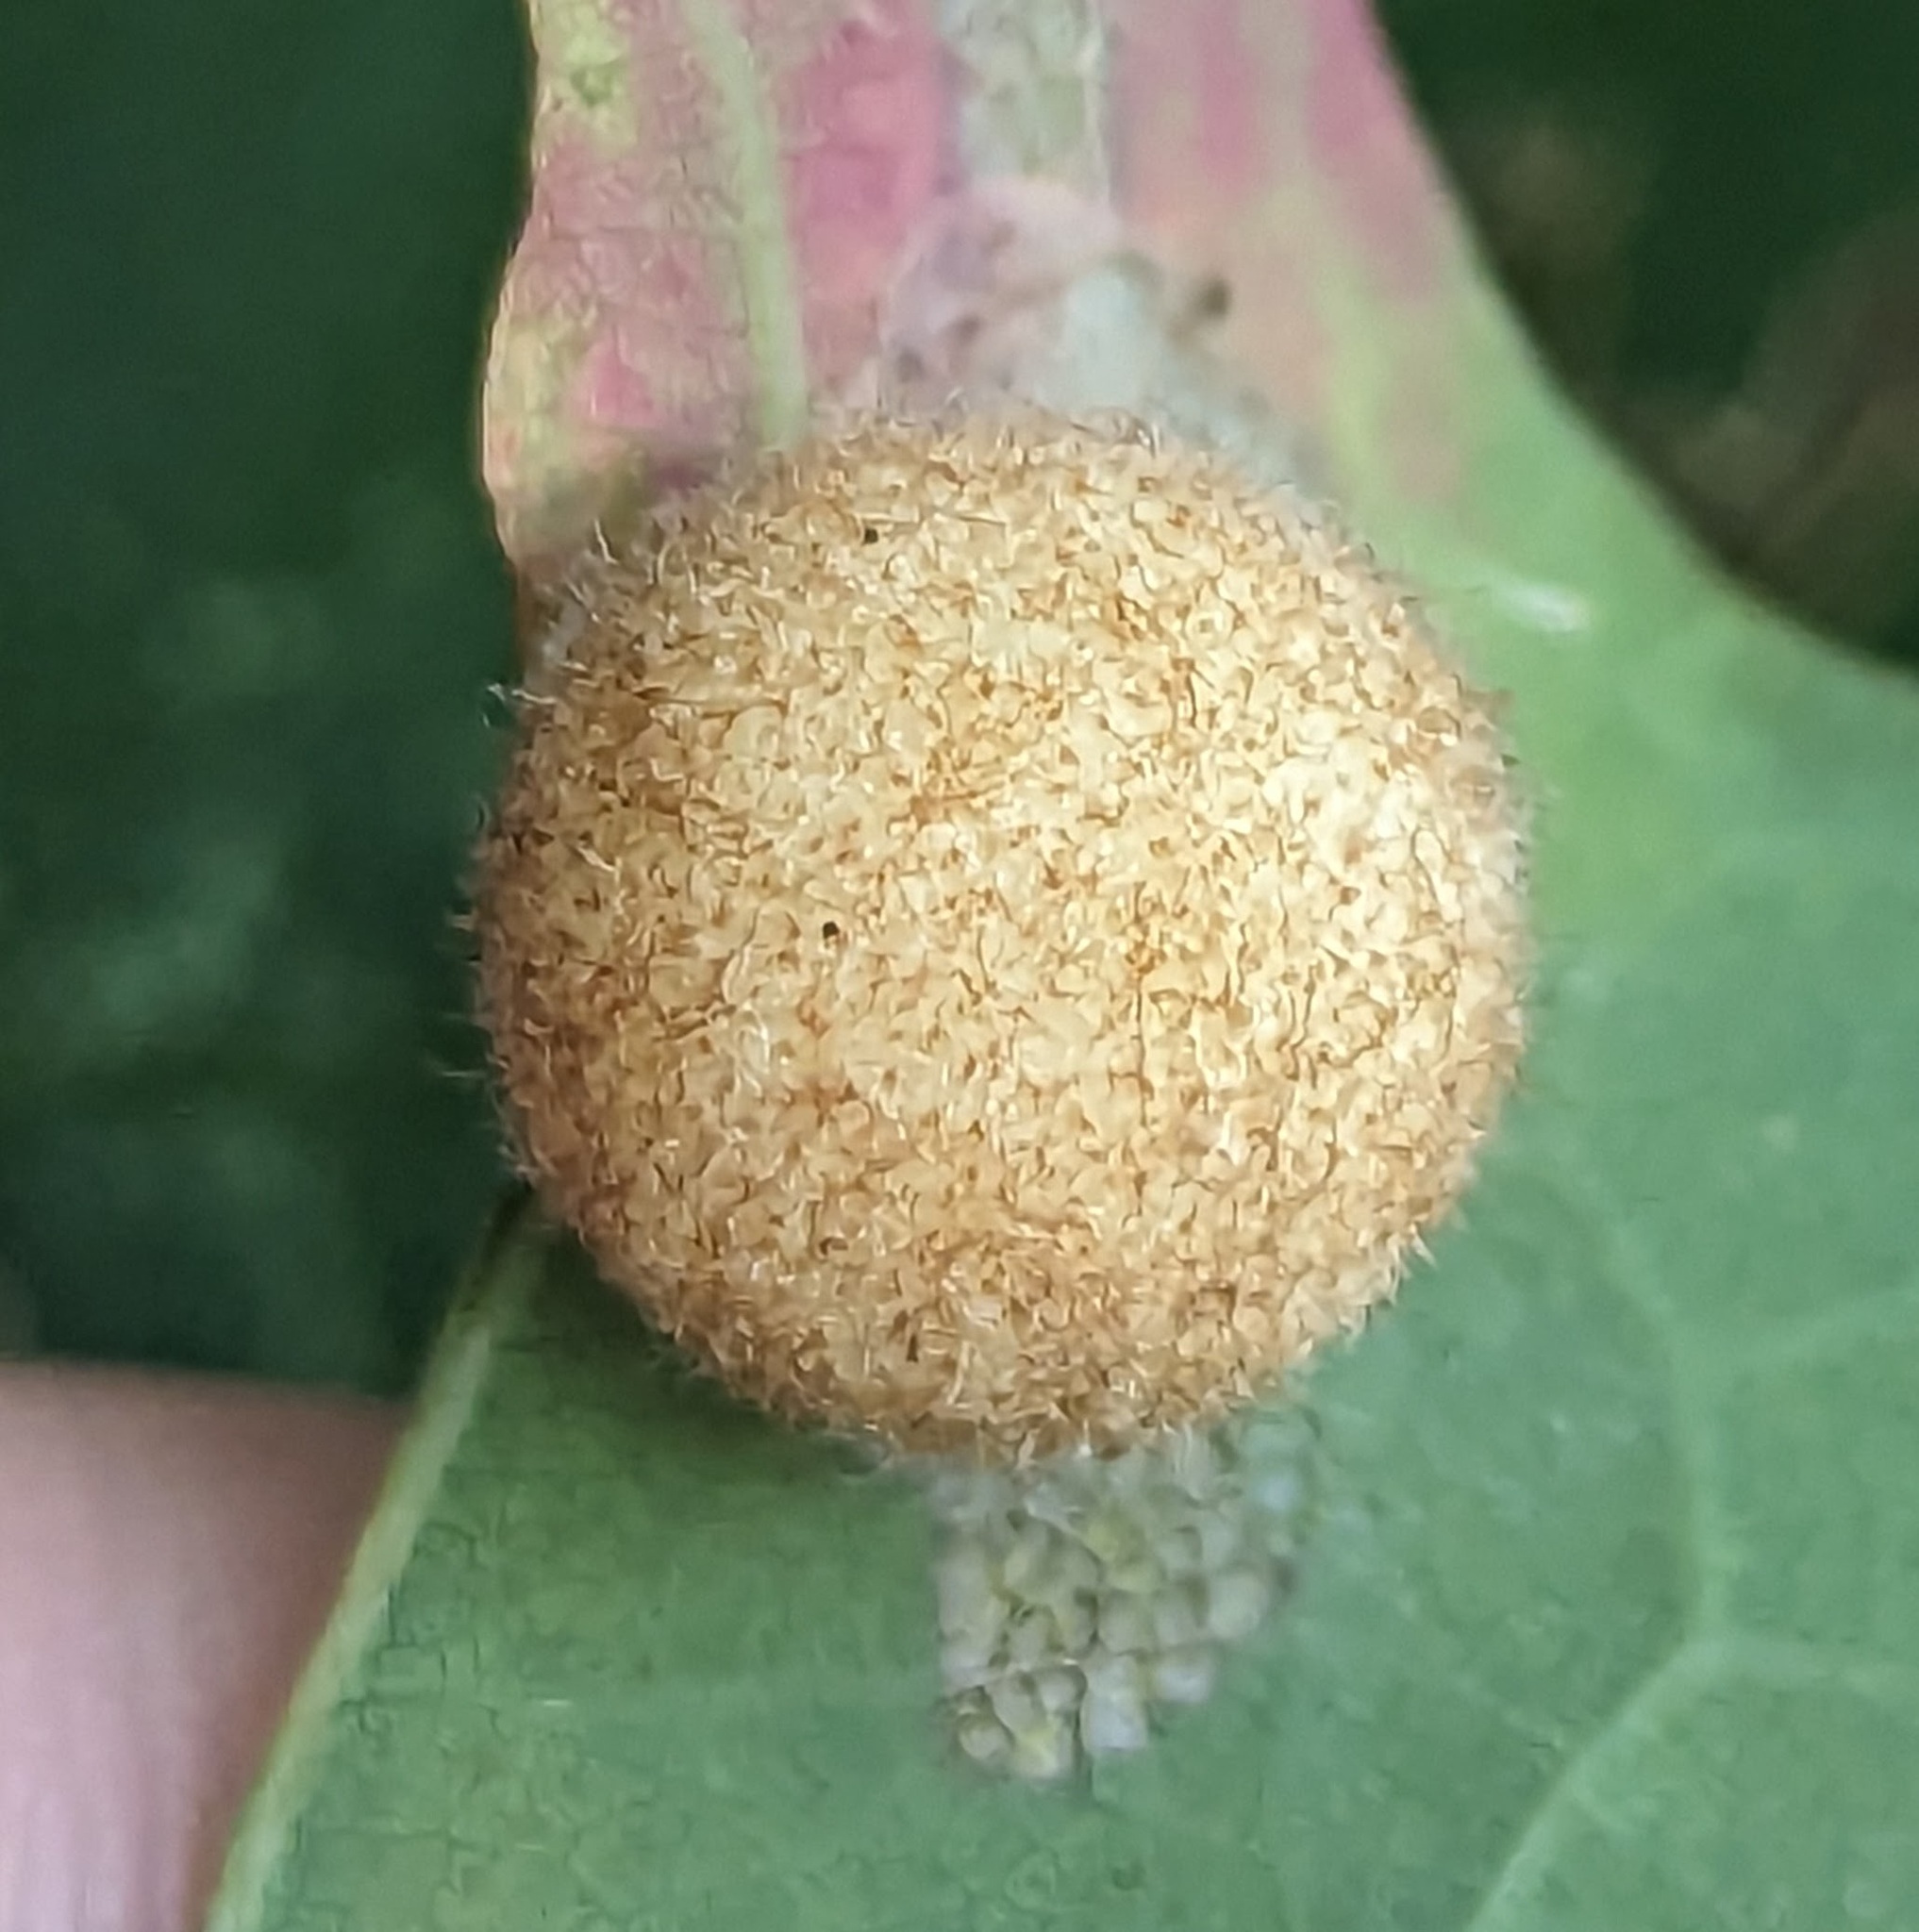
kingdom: Animalia
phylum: Arthropoda
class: Insecta
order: Hymenoptera
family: Cynipidae
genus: Philonix
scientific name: Philonix fulvicollis
